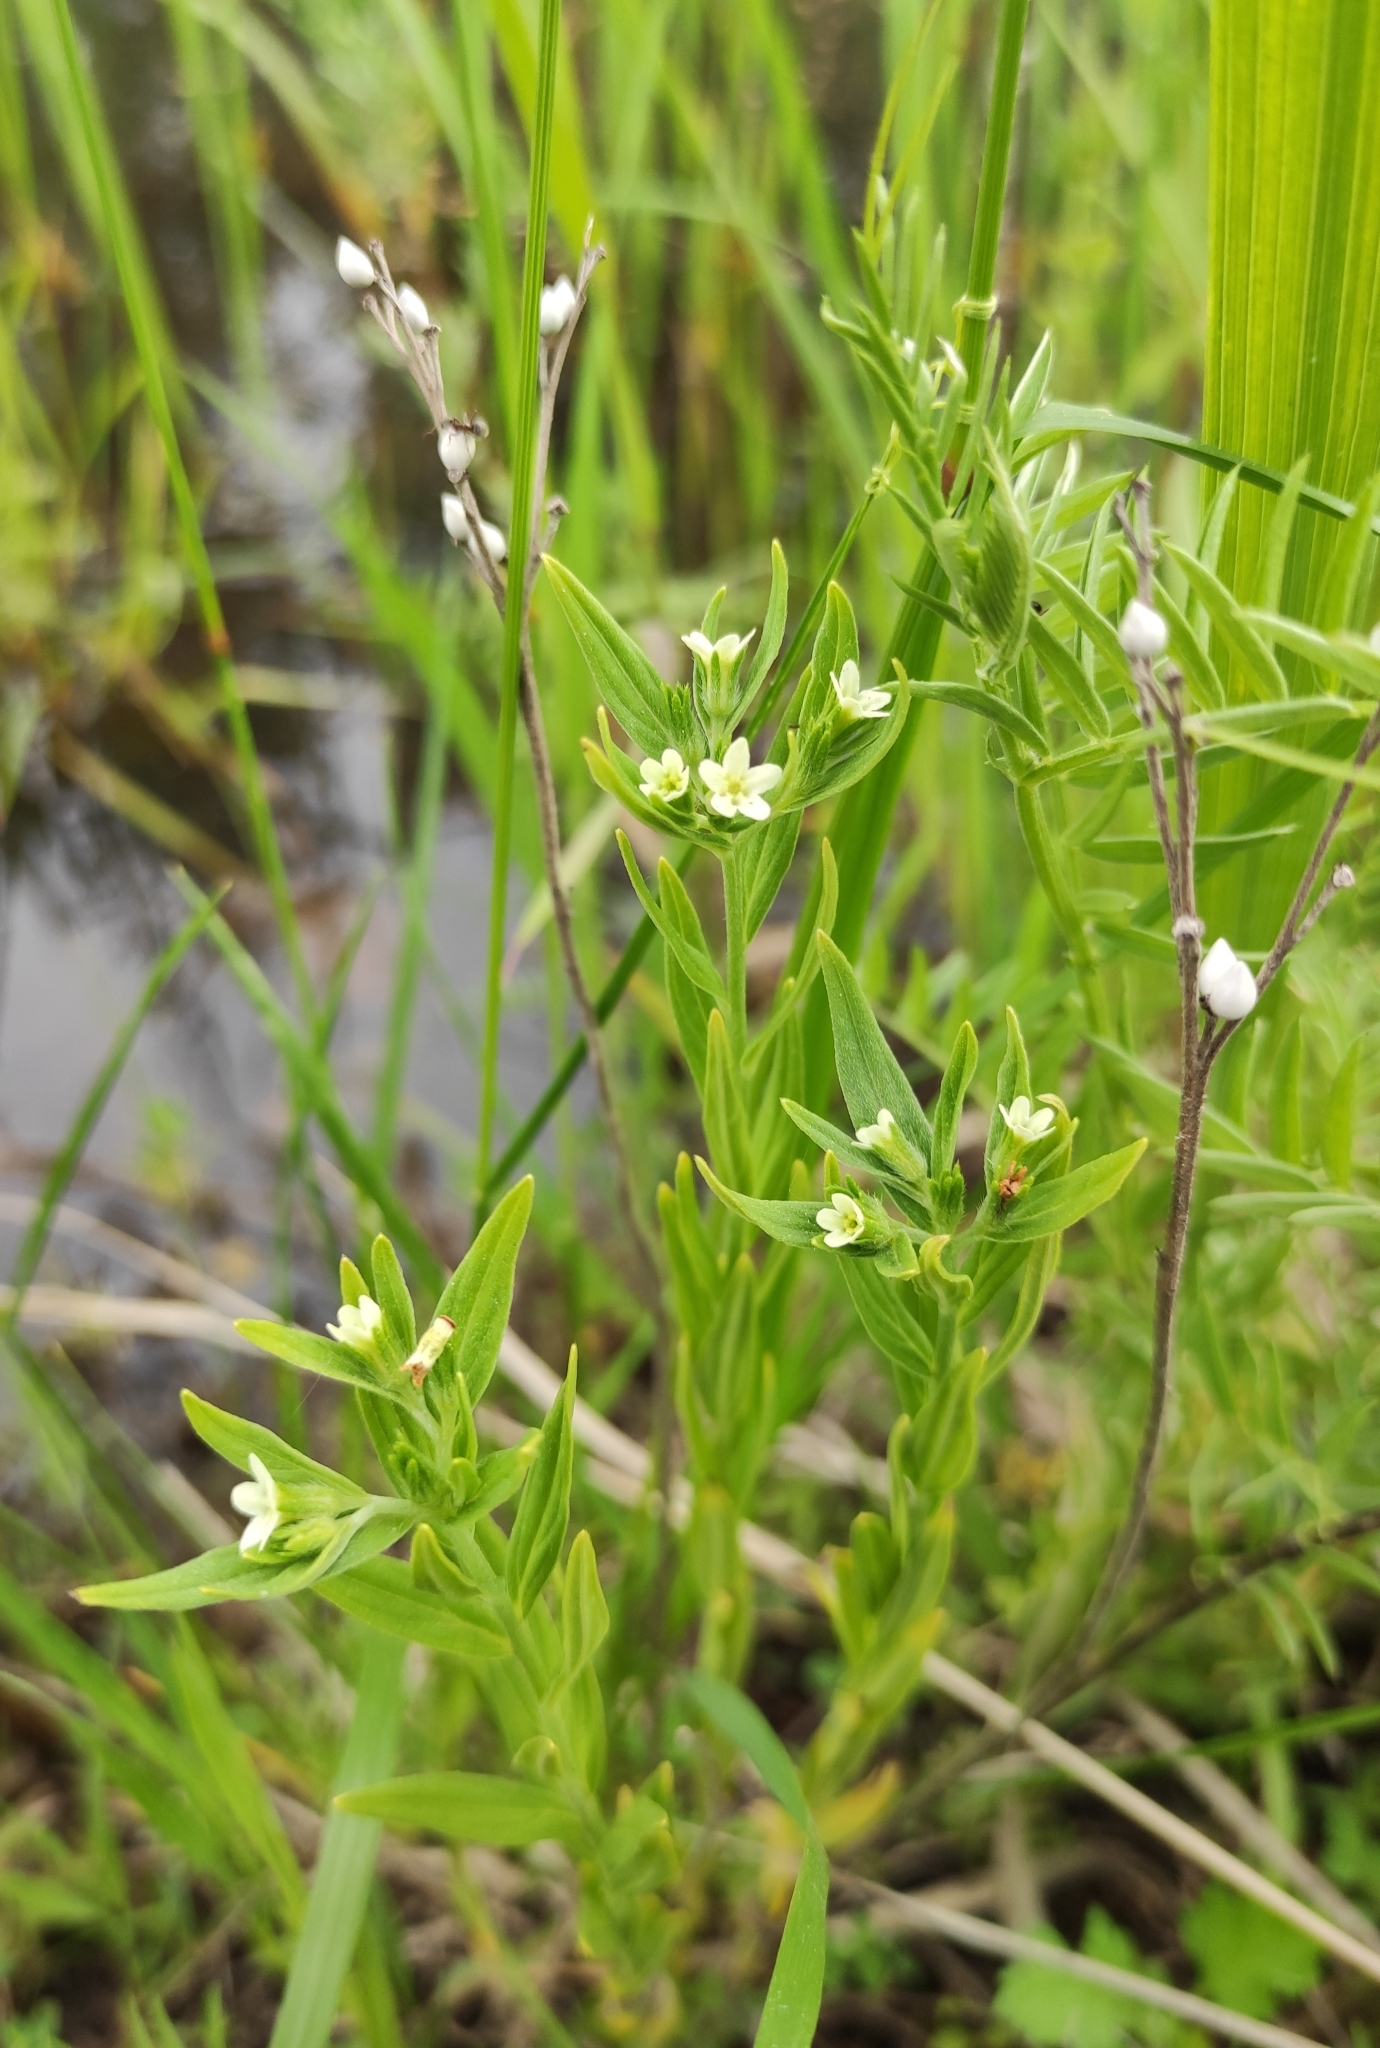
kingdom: Plantae
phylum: Tracheophyta
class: Magnoliopsida
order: Boraginales
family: Boraginaceae
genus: Lithospermum
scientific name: Lithospermum officinale
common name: Common gromwell
